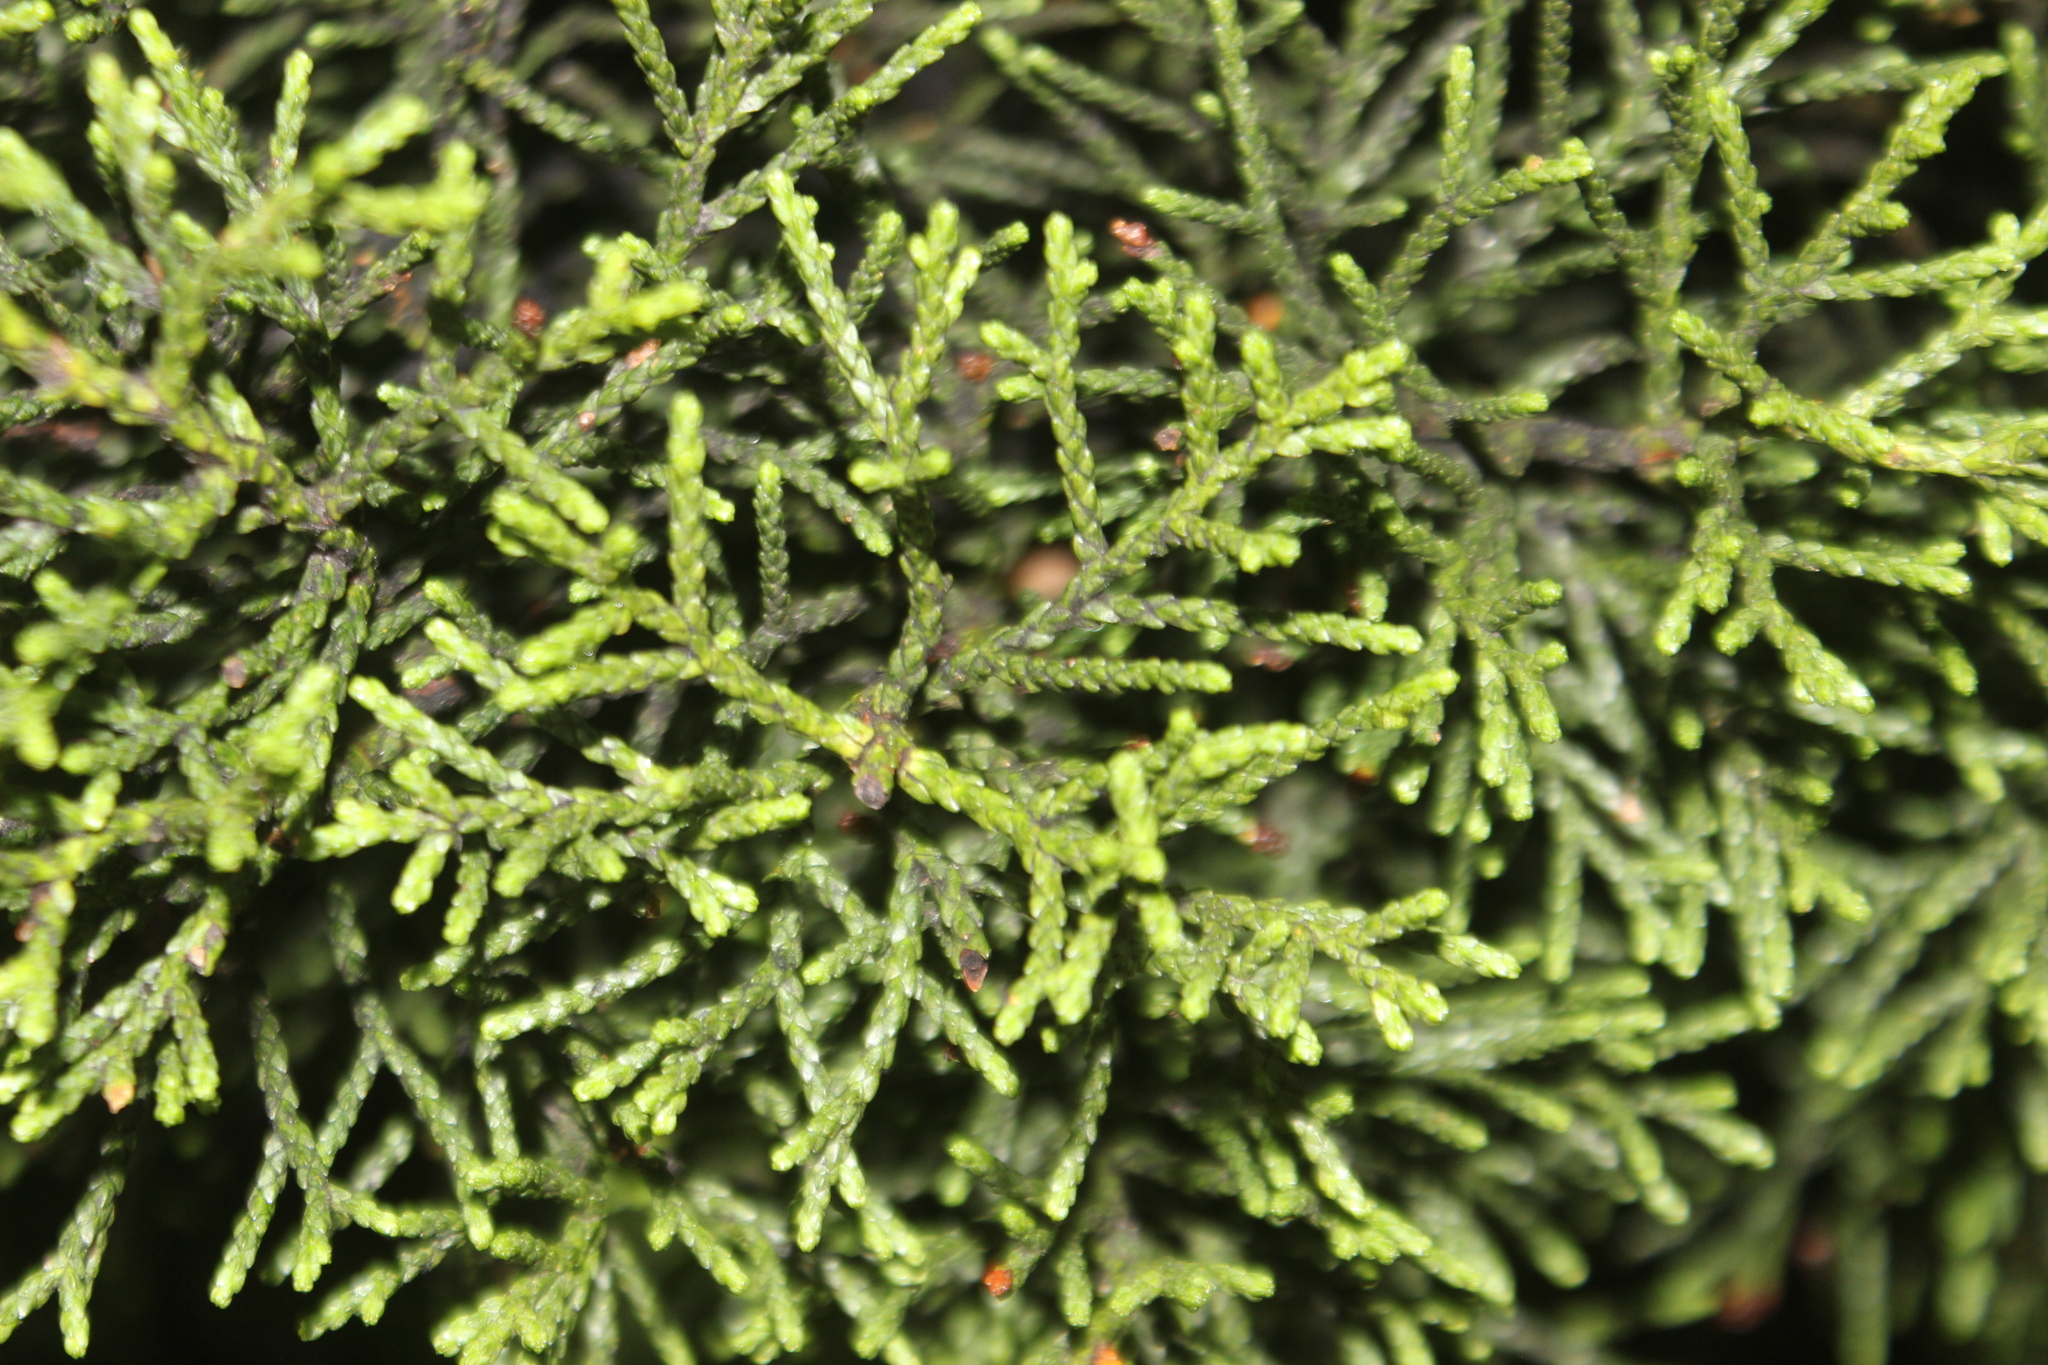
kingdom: Plantae
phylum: Tracheophyta
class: Pinopsida
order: Pinales
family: Podocarpaceae
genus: Halocarpus
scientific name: Halocarpus biformis
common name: Alpine tarwood
